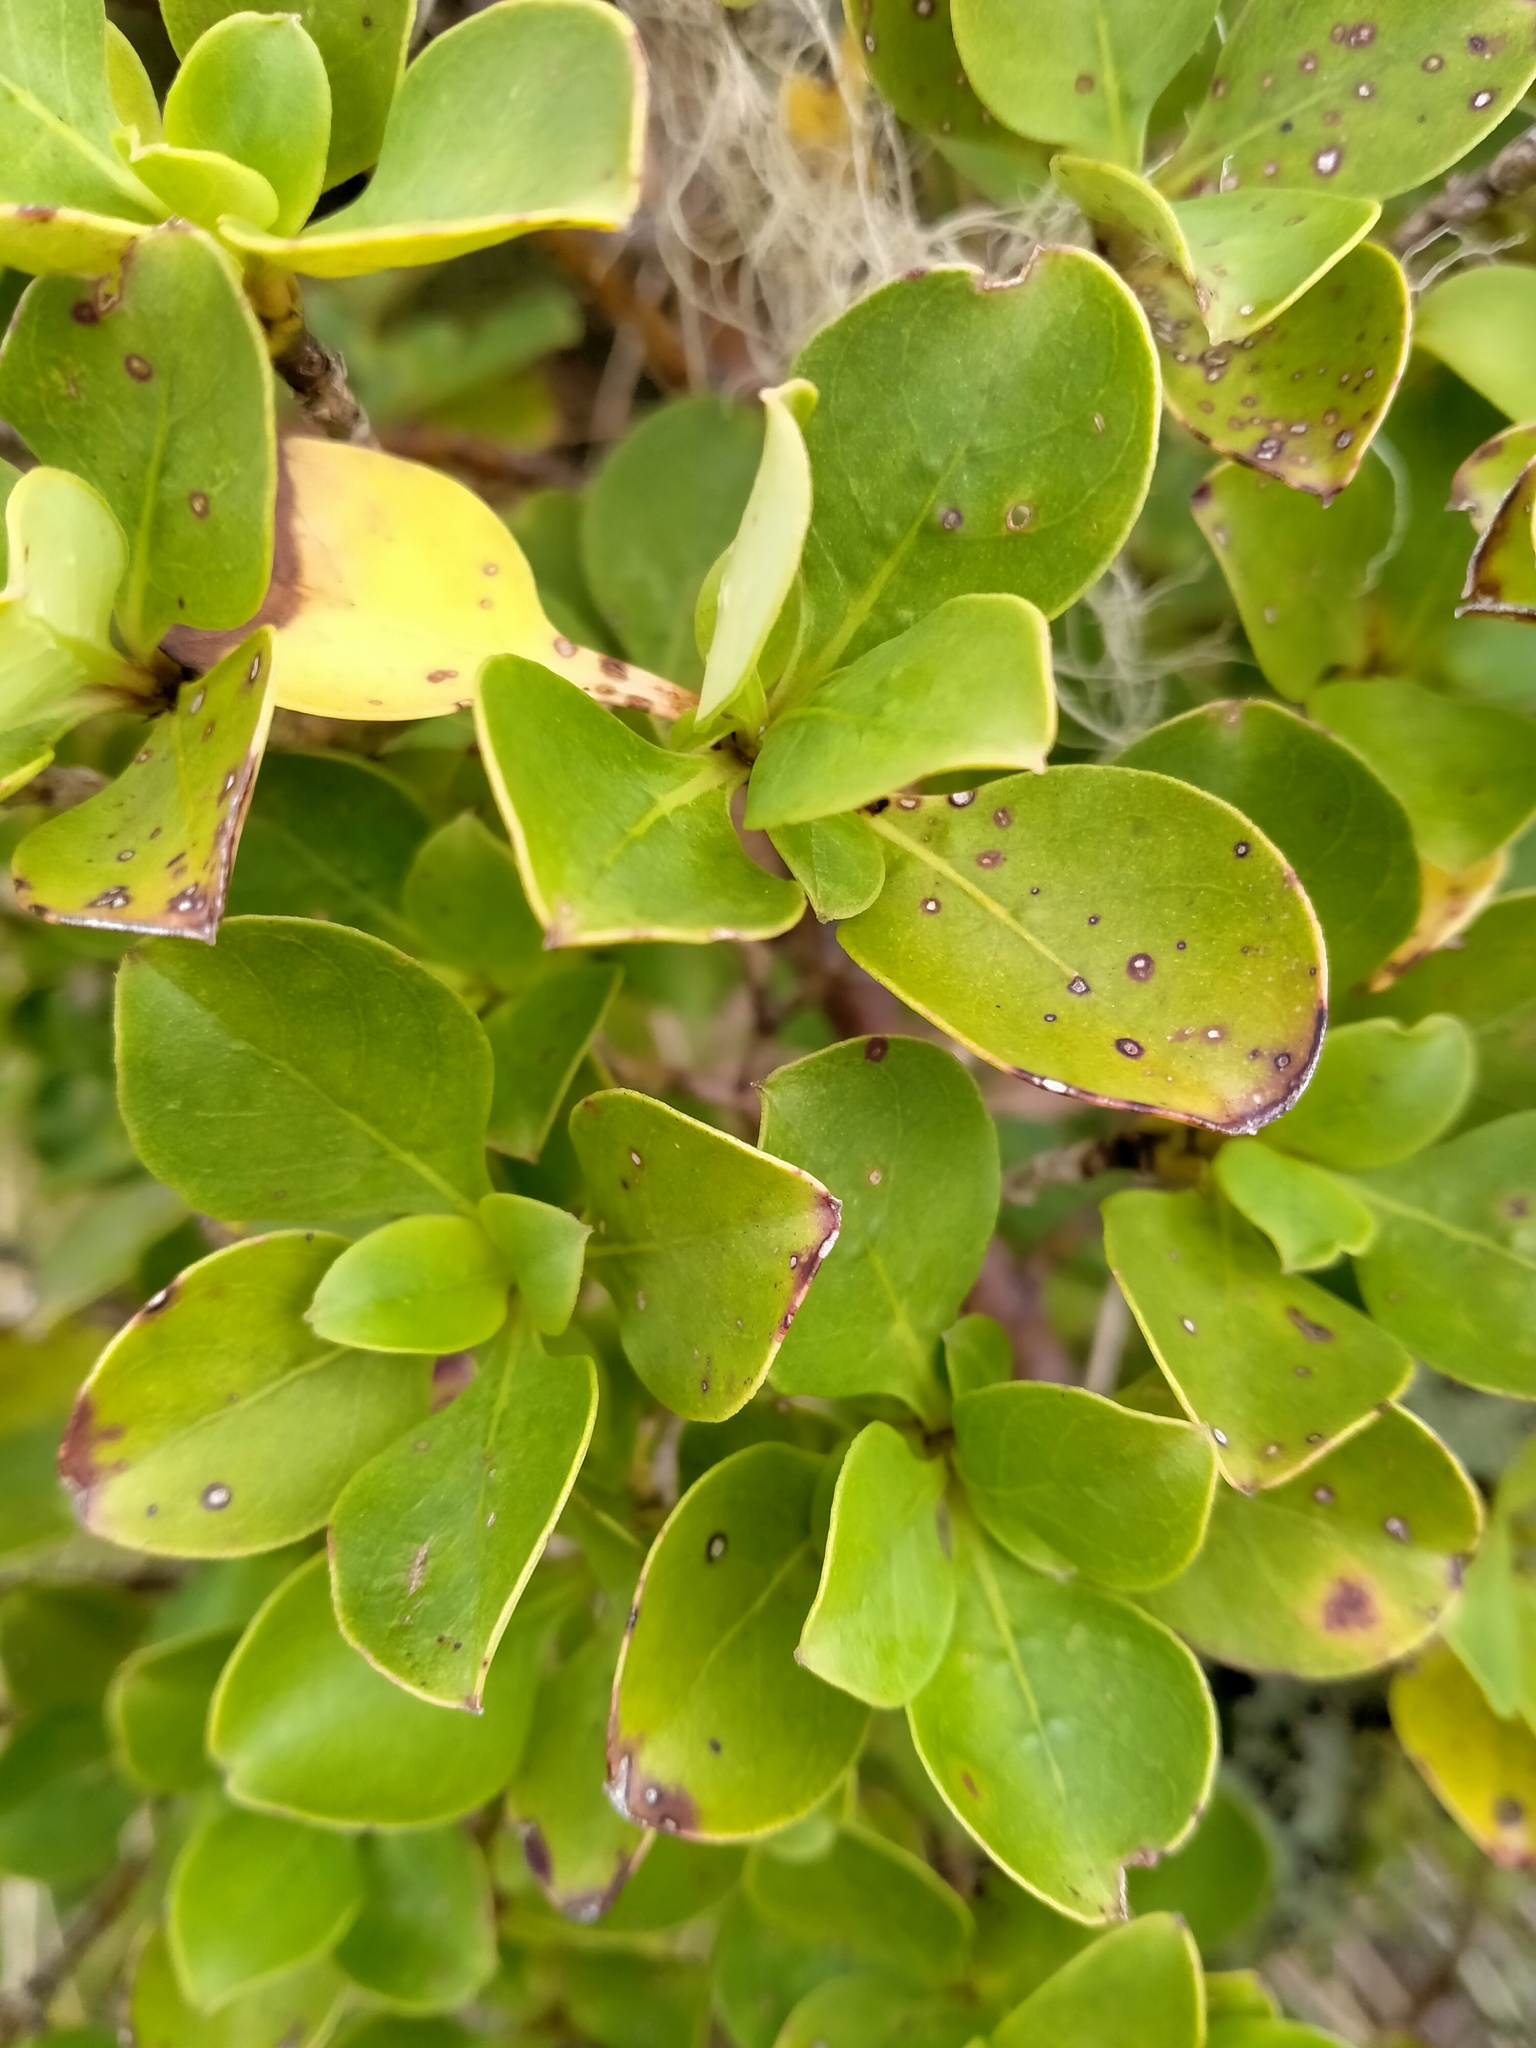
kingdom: Plantae
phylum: Tracheophyta
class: Magnoliopsida
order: Gentianales
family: Rubiaceae
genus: Coprosma
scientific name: Coprosma foetidissima
